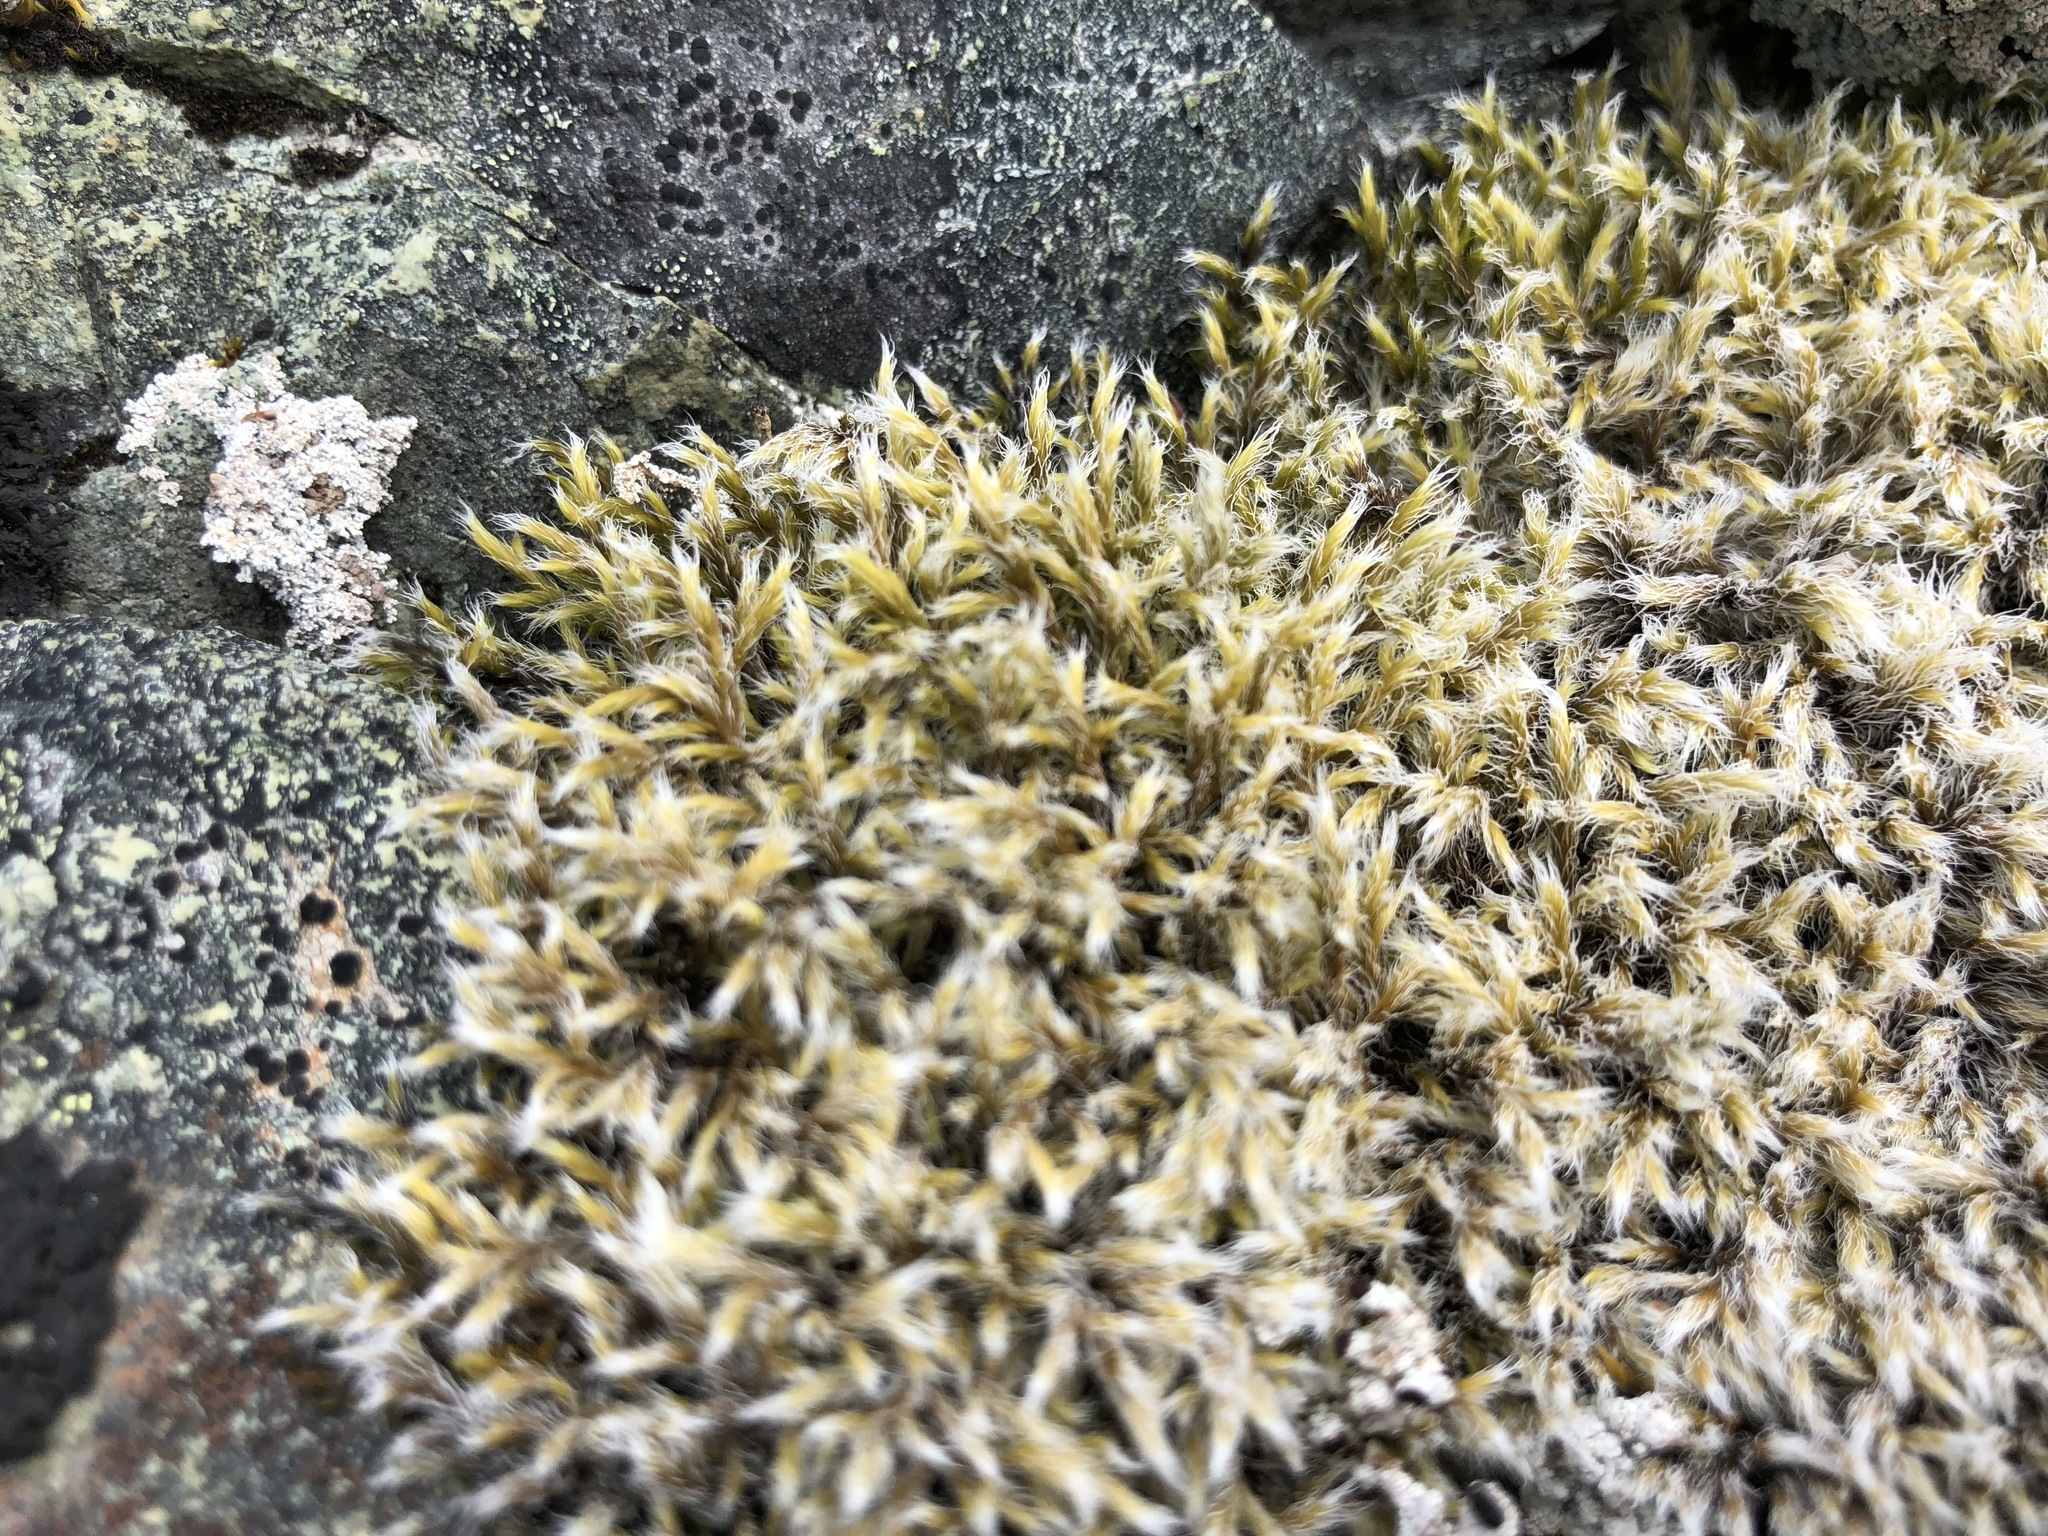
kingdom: Plantae
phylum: Bryophyta
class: Bryopsida
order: Grimmiales
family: Grimmiaceae
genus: Racomitrium
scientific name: Racomitrium lanuginosum
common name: Hoary rock moss
